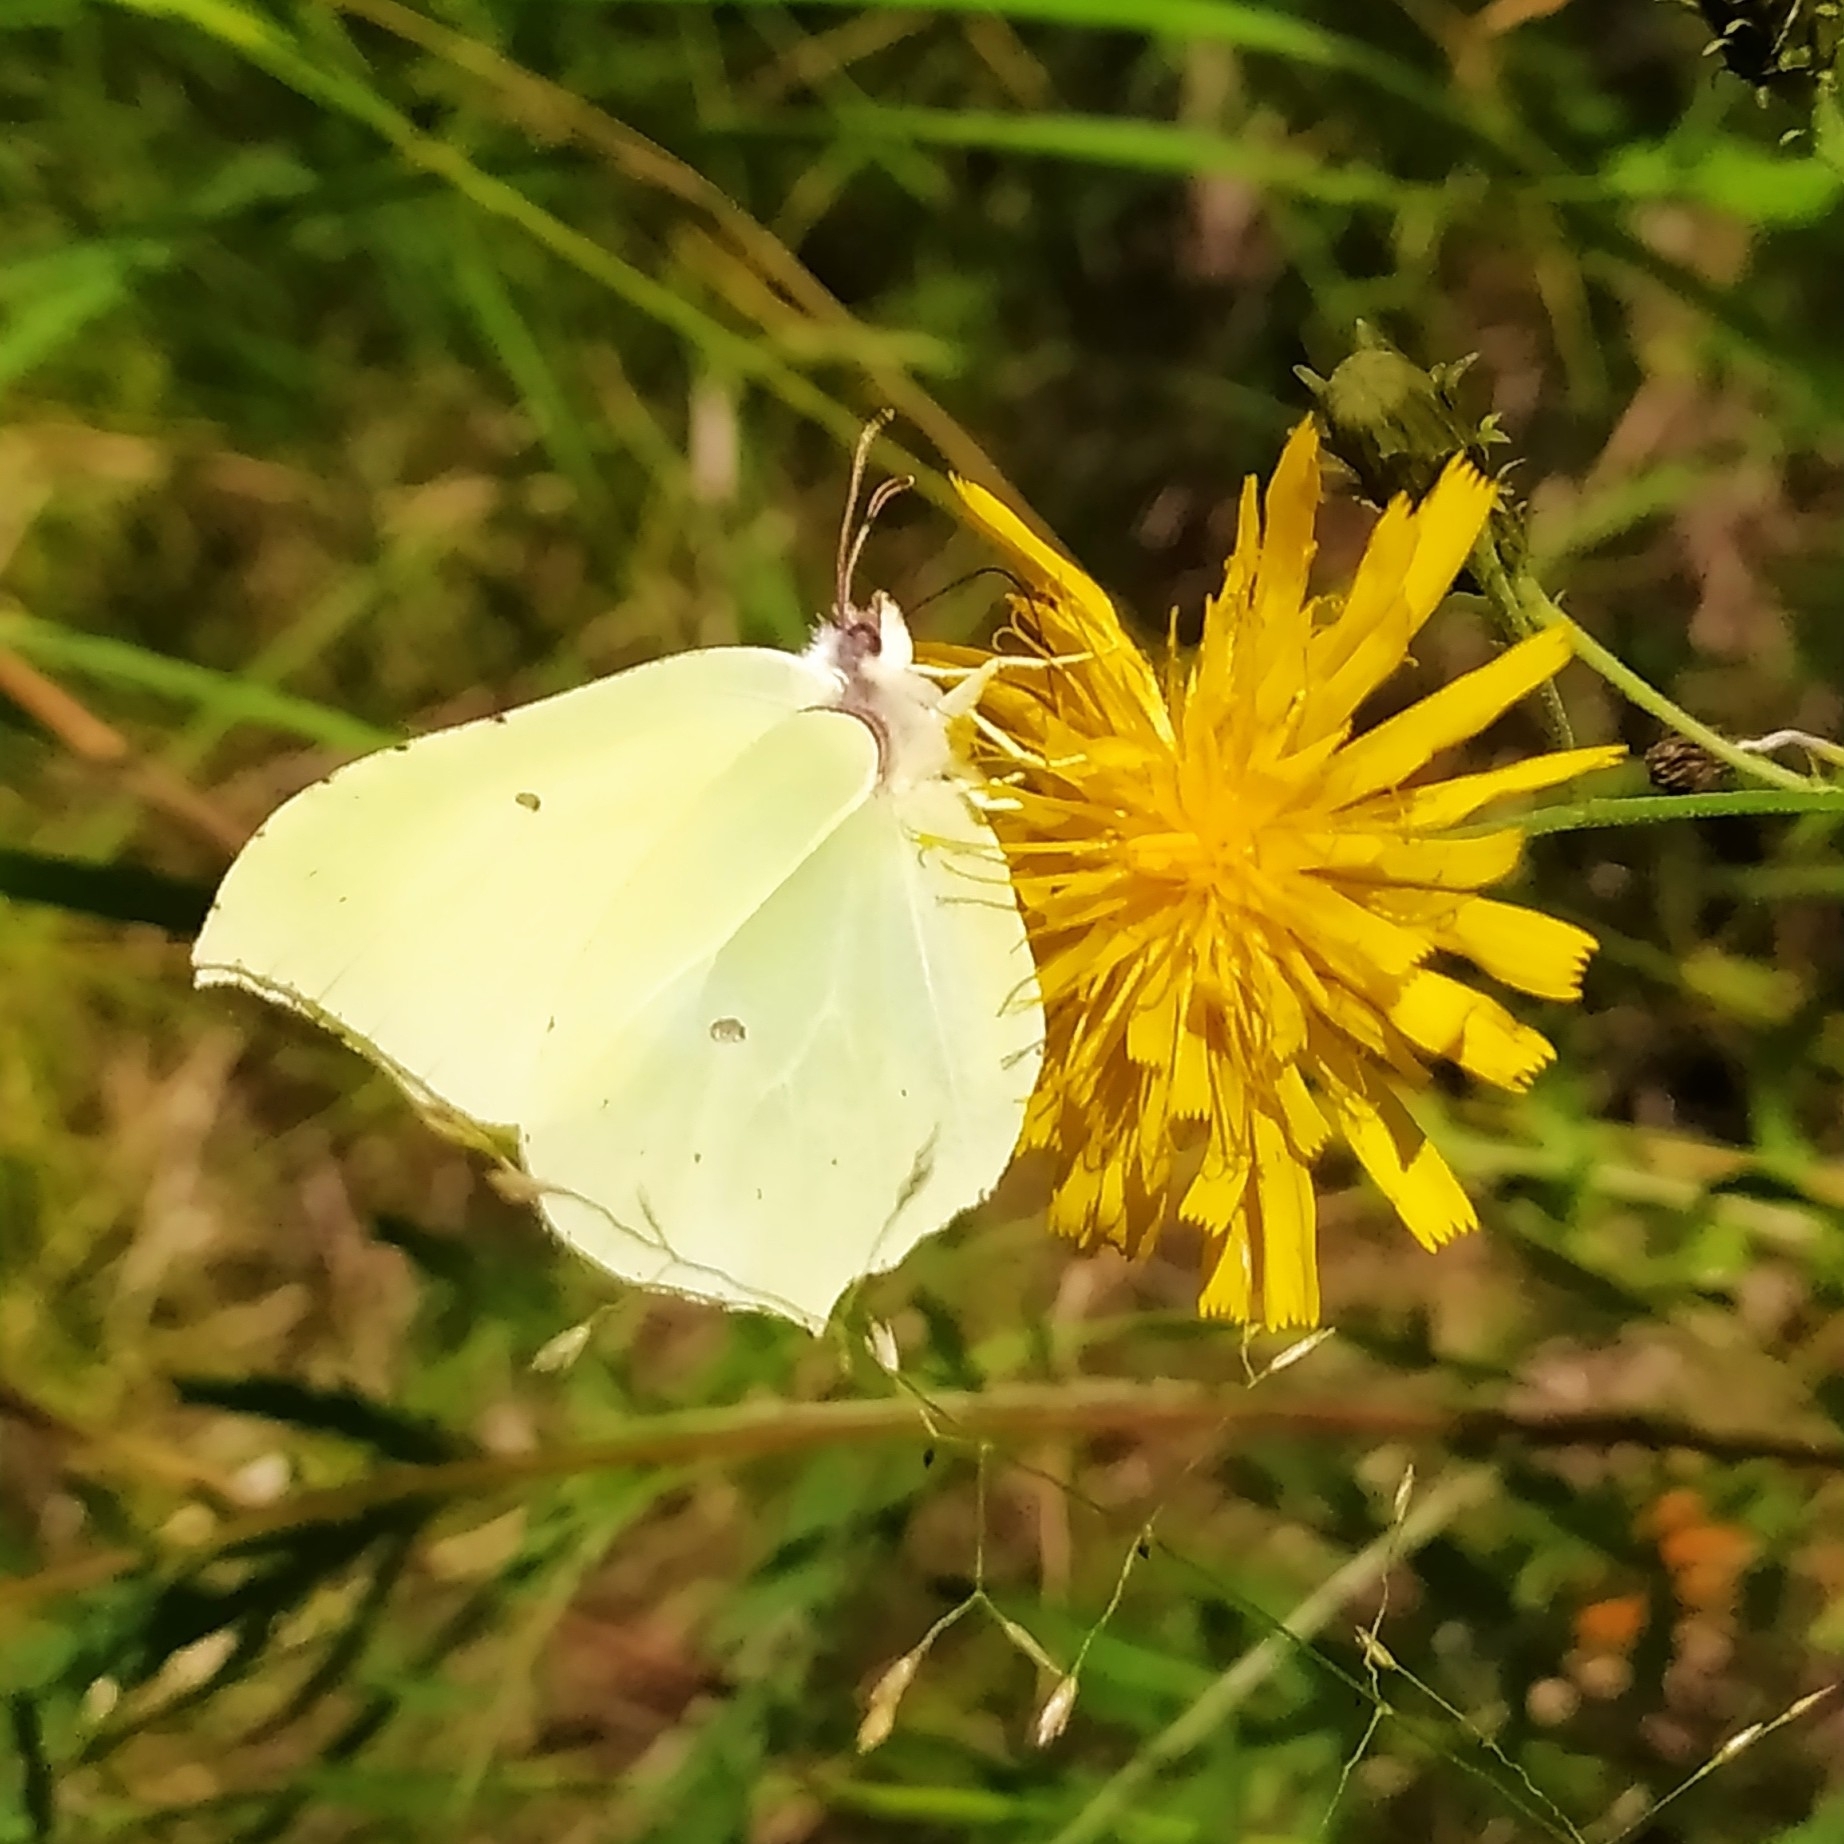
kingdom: Animalia
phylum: Arthropoda
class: Insecta
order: Lepidoptera
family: Pieridae
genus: Gonepteryx
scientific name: Gonepteryx rhamni
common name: Brimstone
